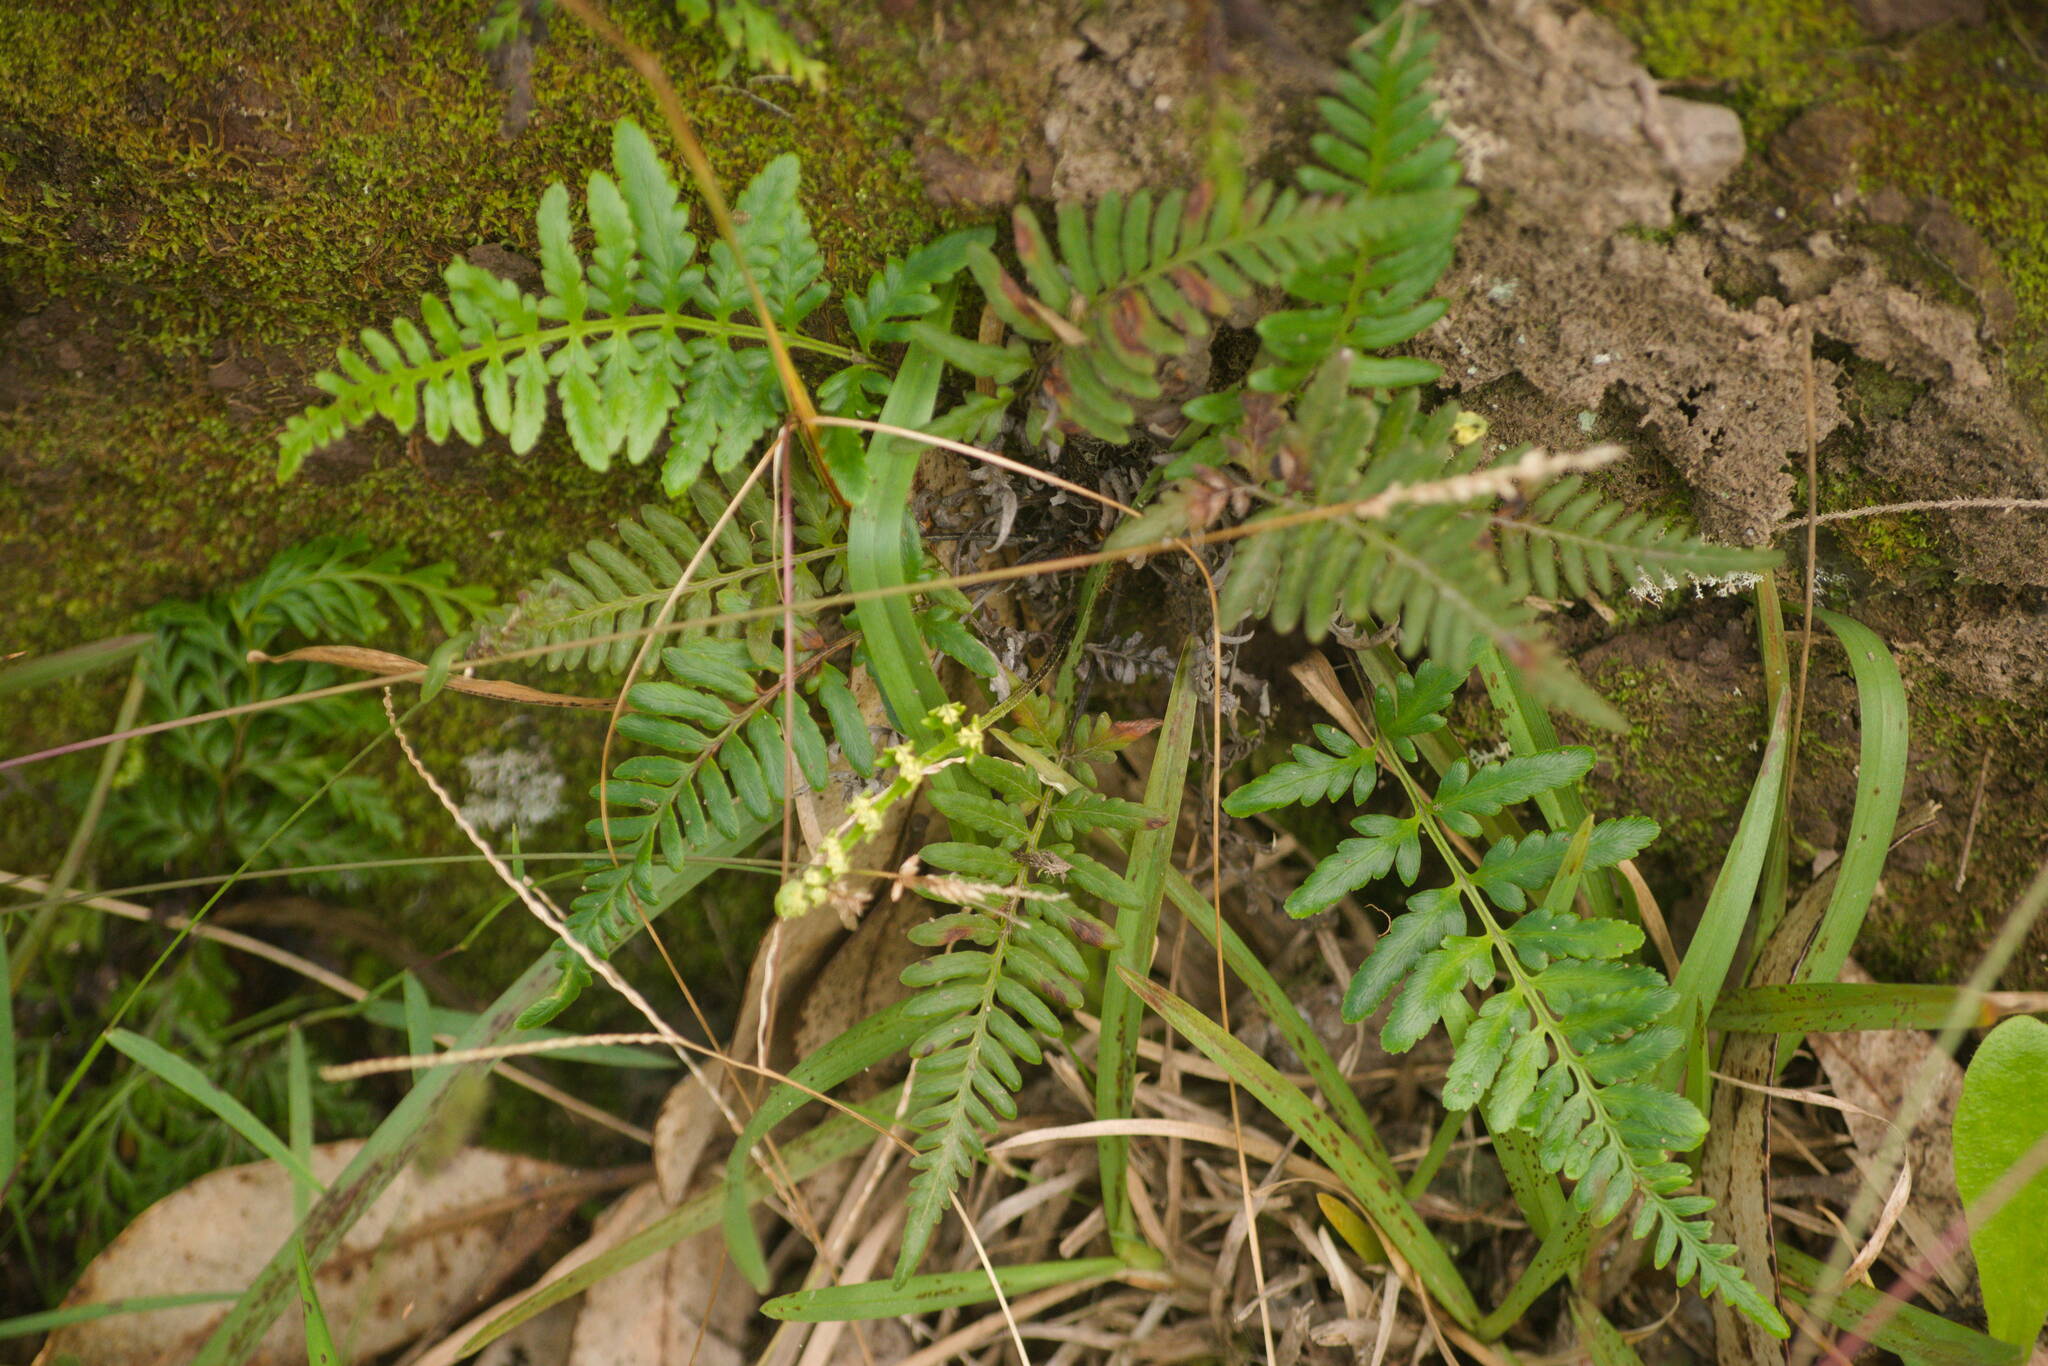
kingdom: Plantae
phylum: Tracheophyta
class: Polypodiopsida
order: Polypodiales
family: Pteridaceae
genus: Pityrogramma
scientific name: Pityrogramma austroamericana
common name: Leatherleaf goldback fern
